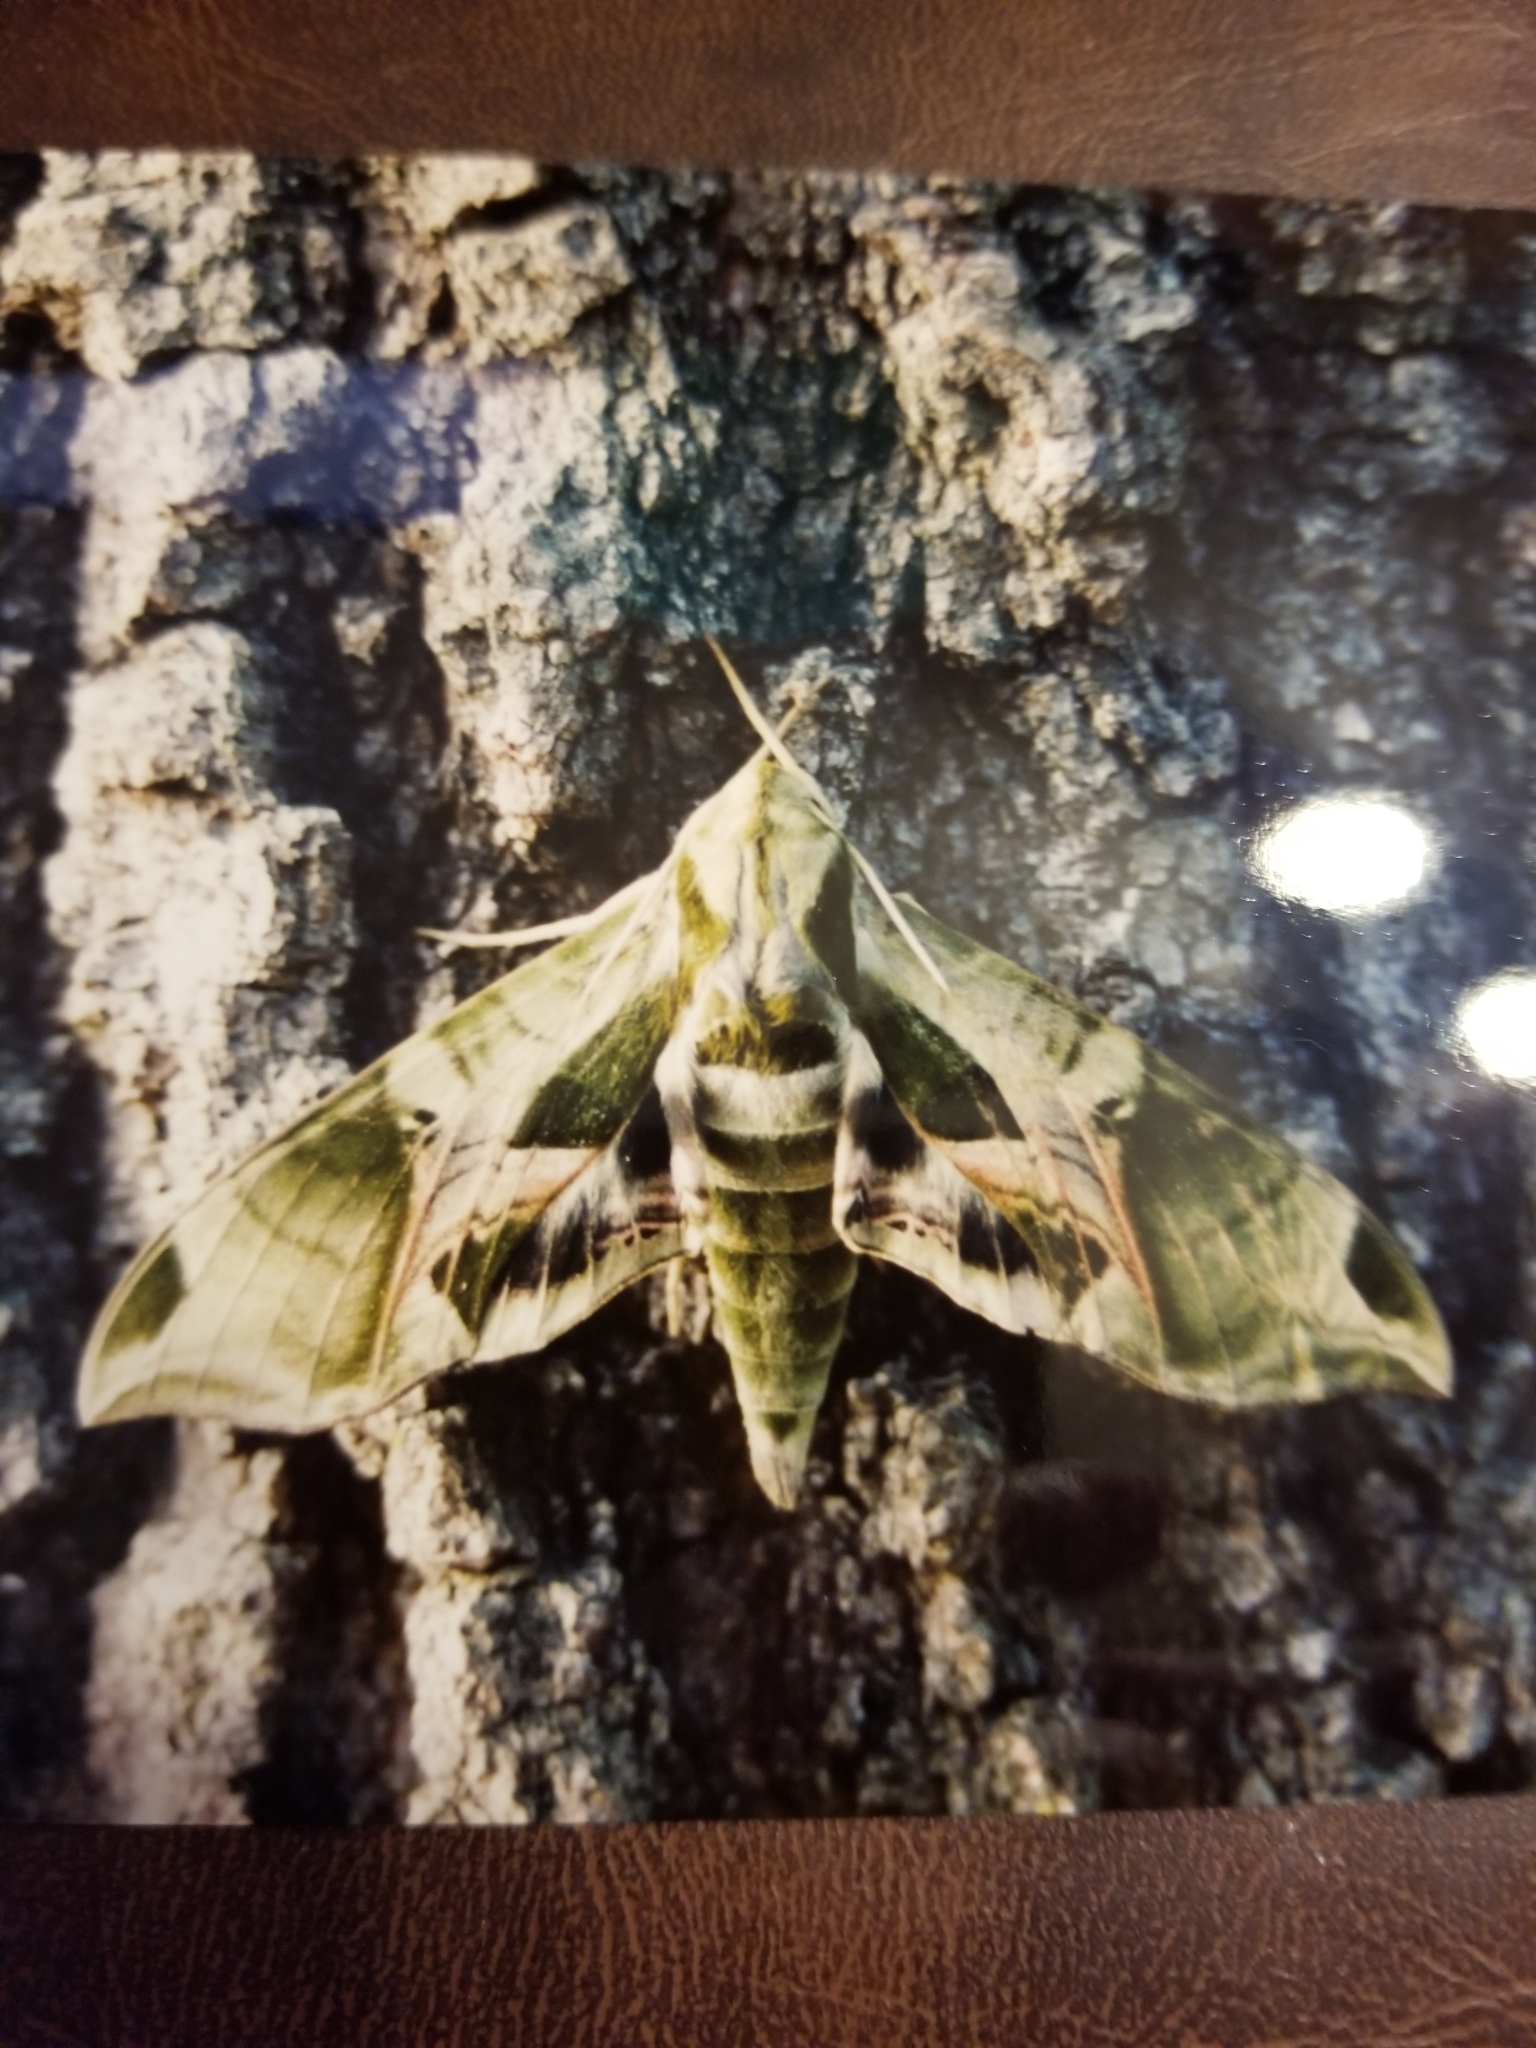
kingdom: Animalia
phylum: Arthropoda
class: Insecta
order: Lepidoptera
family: Sphingidae
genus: Eumorpha
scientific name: Eumorpha pandorus
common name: Pandora sphinx
